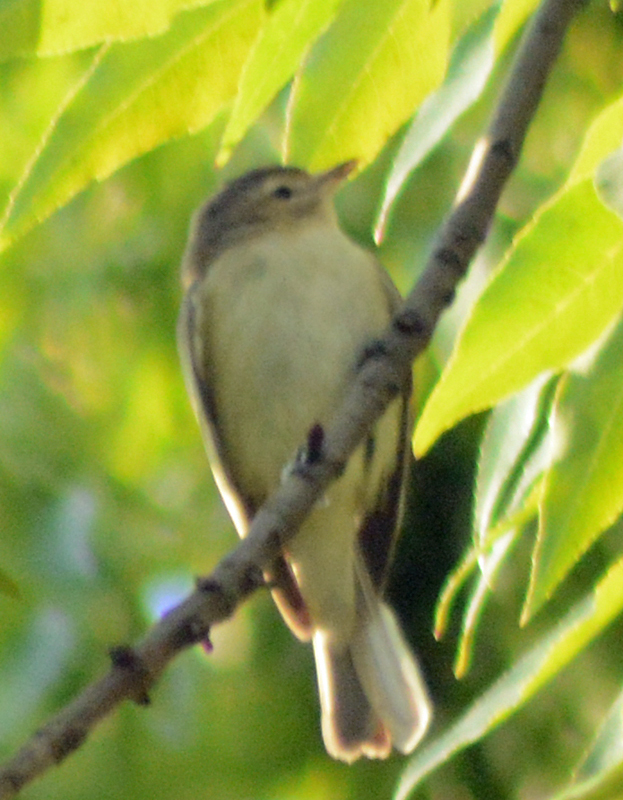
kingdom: Animalia
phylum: Chordata
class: Aves
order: Passeriformes
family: Vireonidae
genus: Vireo
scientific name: Vireo gilvus
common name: Warbling vireo
